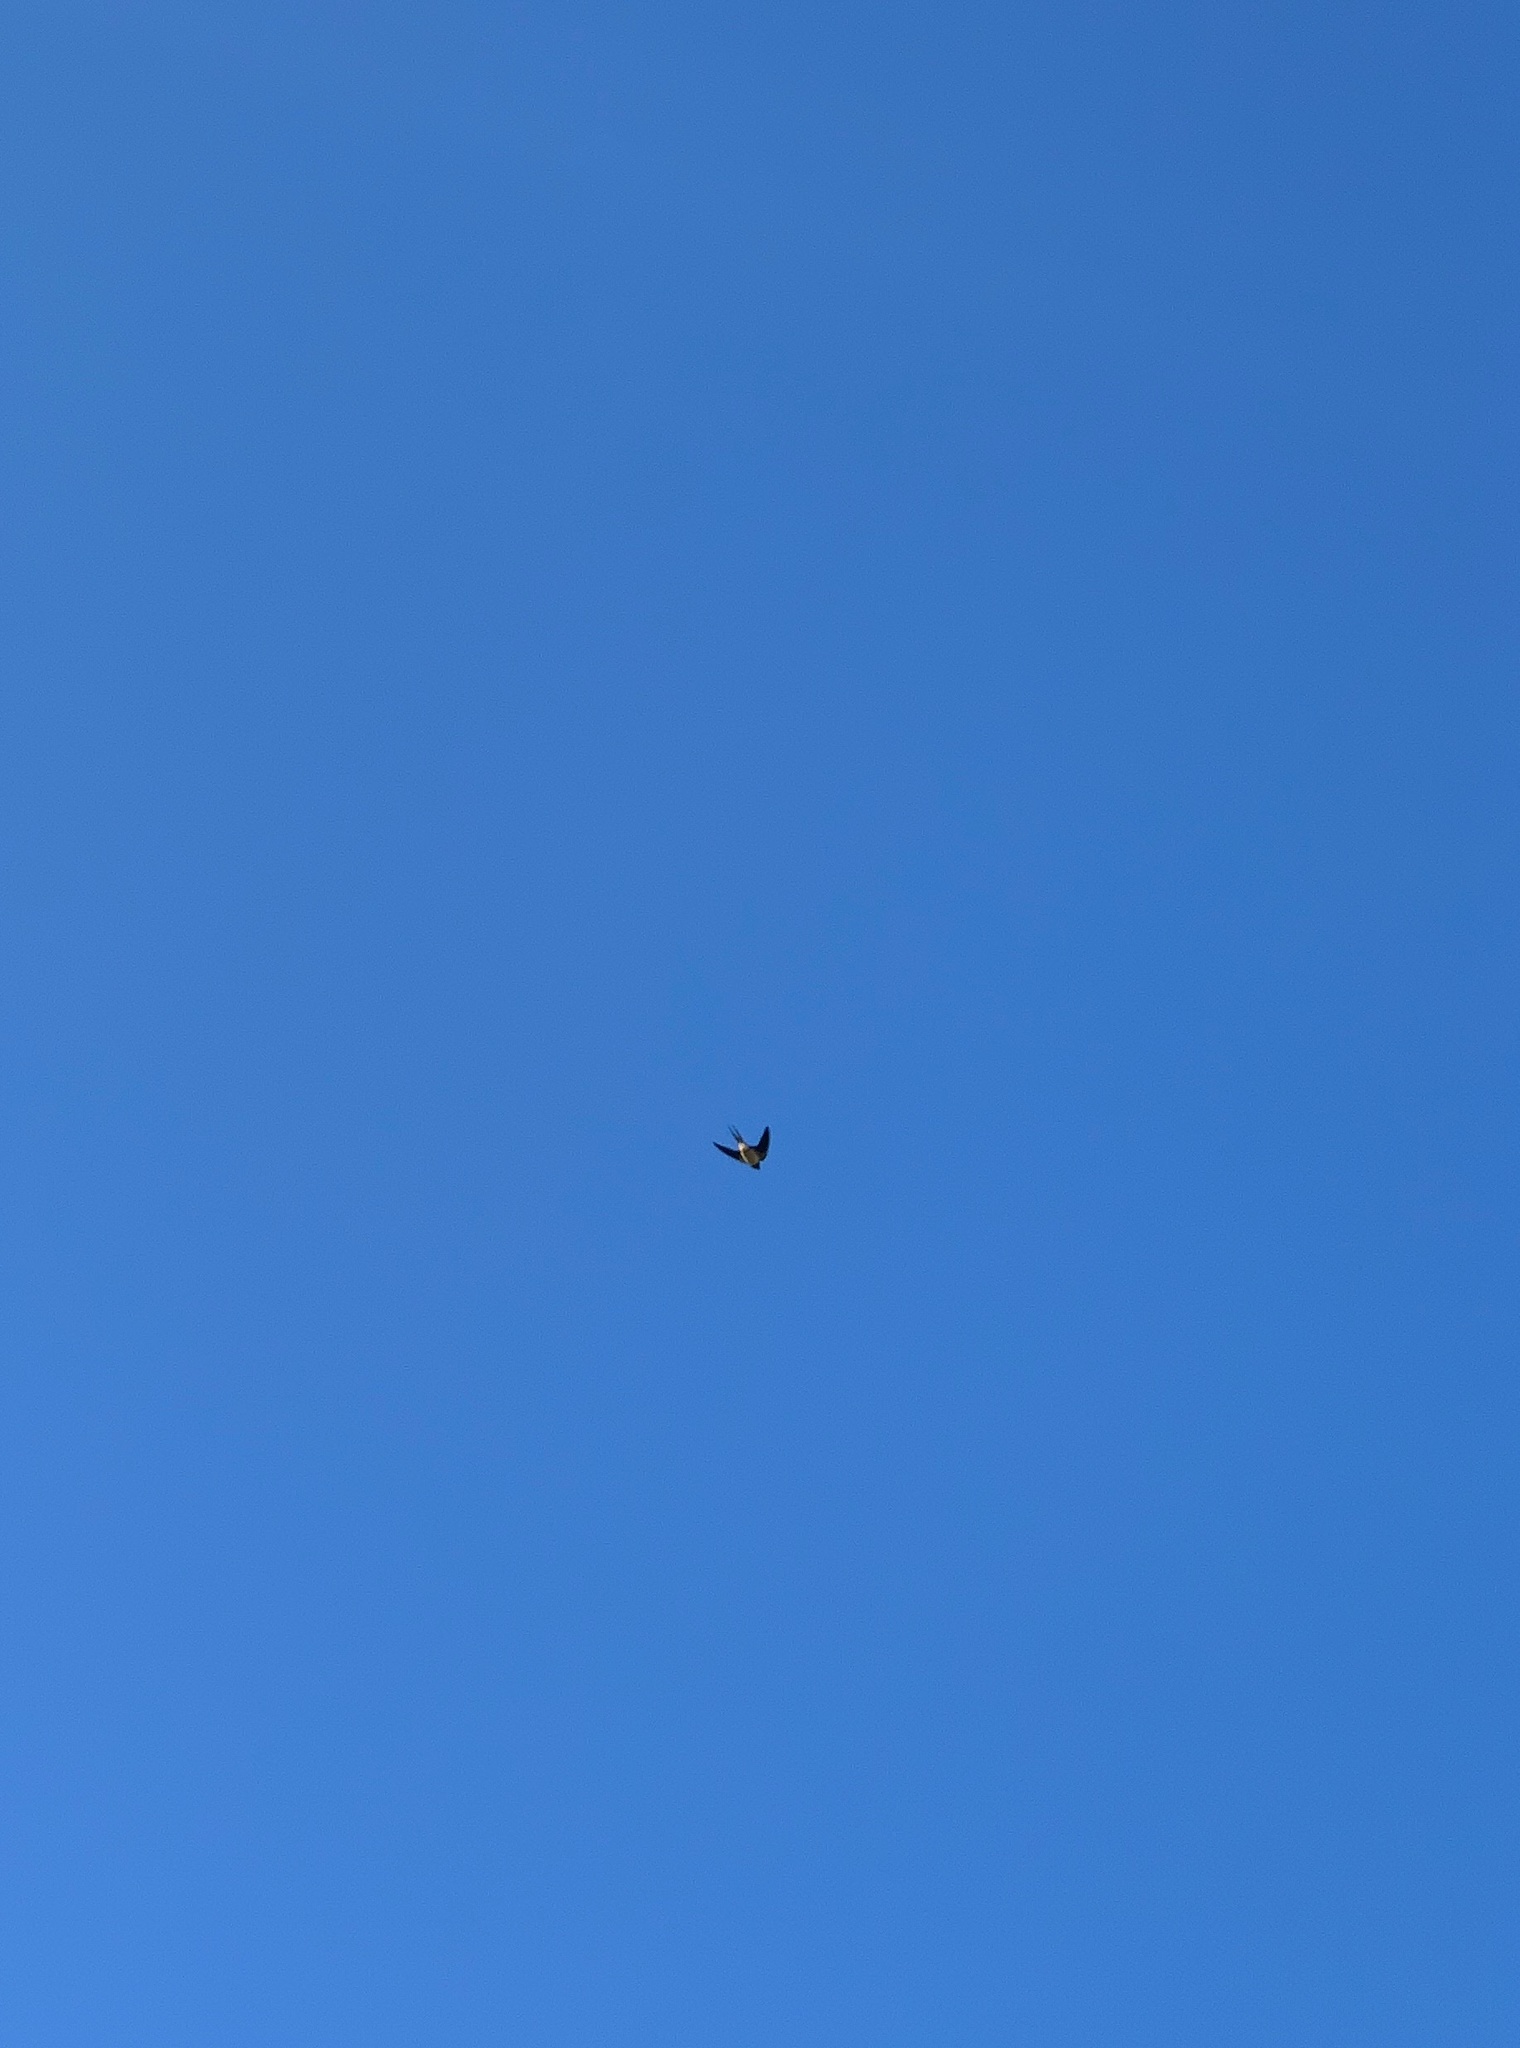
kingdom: Animalia
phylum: Chordata
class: Aves
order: Passeriformes
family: Hirundinidae
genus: Hirundo
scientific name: Hirundo rustica
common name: Barn swallow
